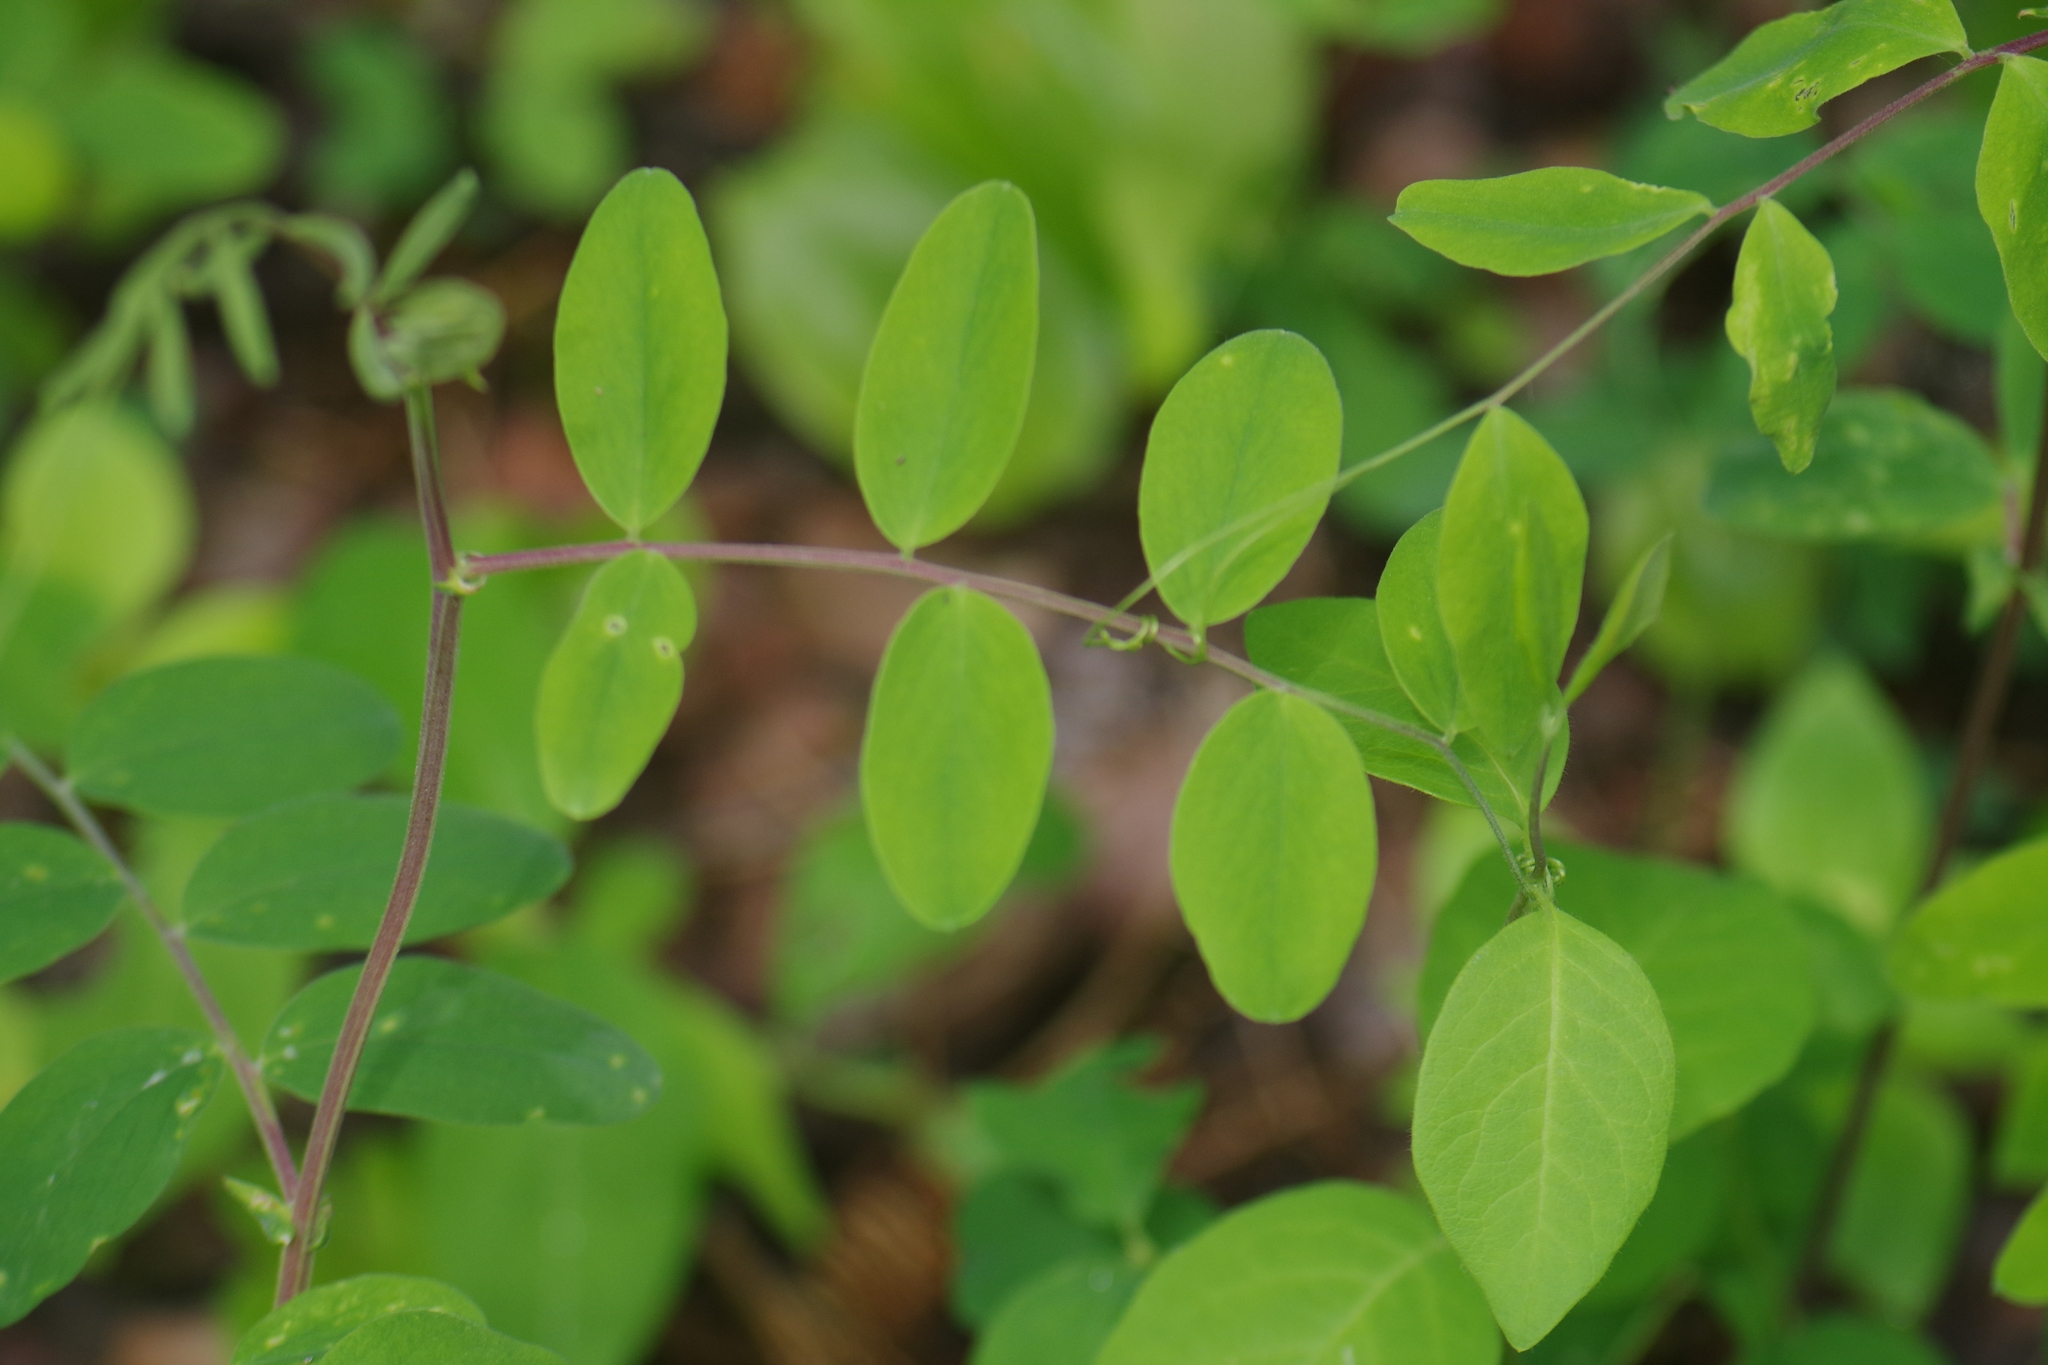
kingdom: Plantae
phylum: Tracheophyta
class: Magnoliopsida
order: Fabales
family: Fabaceae
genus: Lathyrus
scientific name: Lathyrus venosus
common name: Forest-pea
